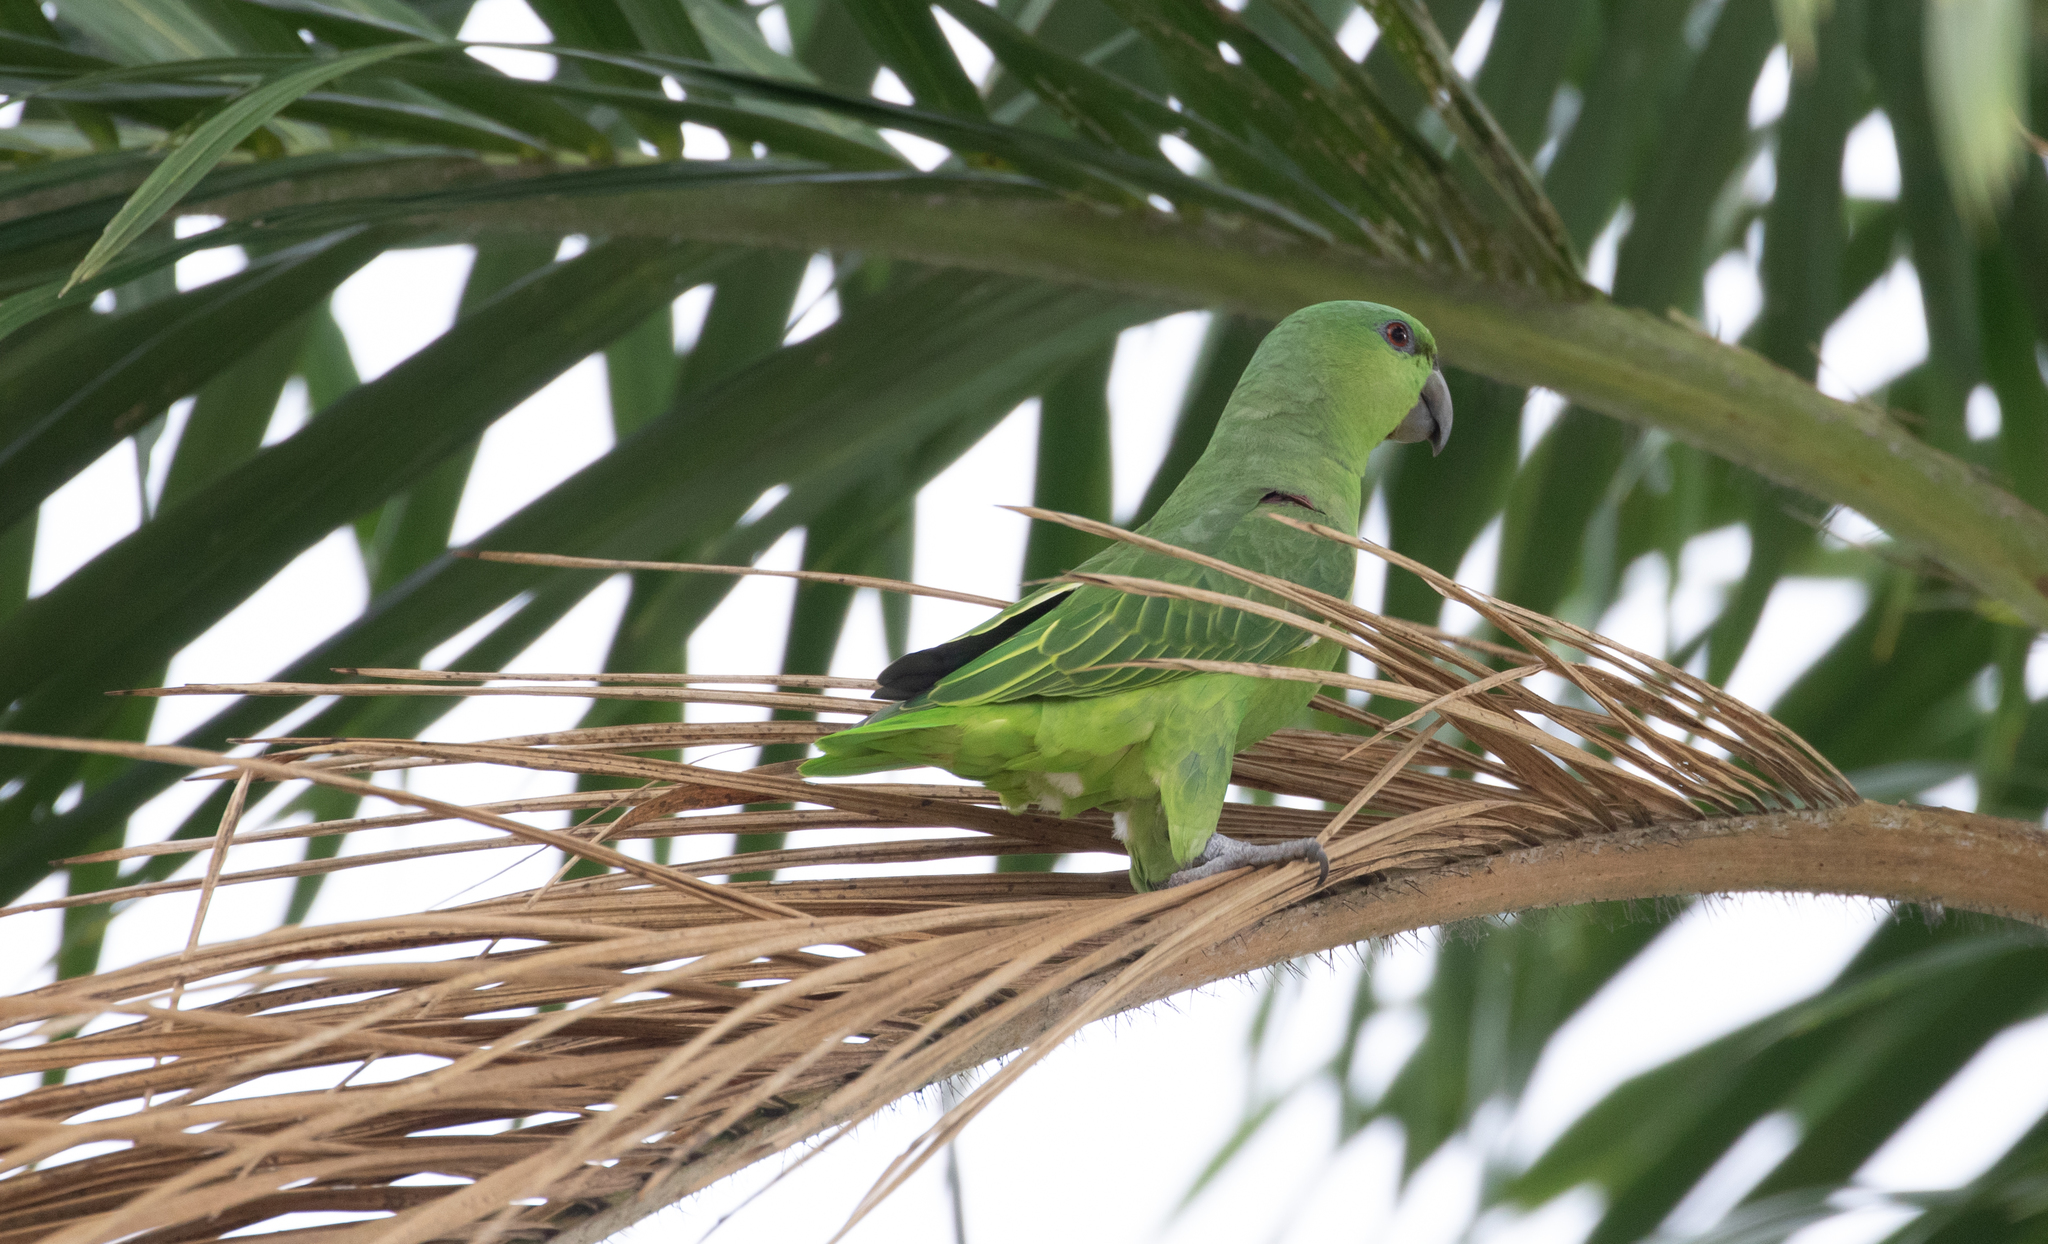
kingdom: Animalia
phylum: Chordata
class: Aves
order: Psittaciformes
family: Psittacidae
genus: Graydidascalus
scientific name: Graydidascalus brachyurus
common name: Short-tailed parrot
